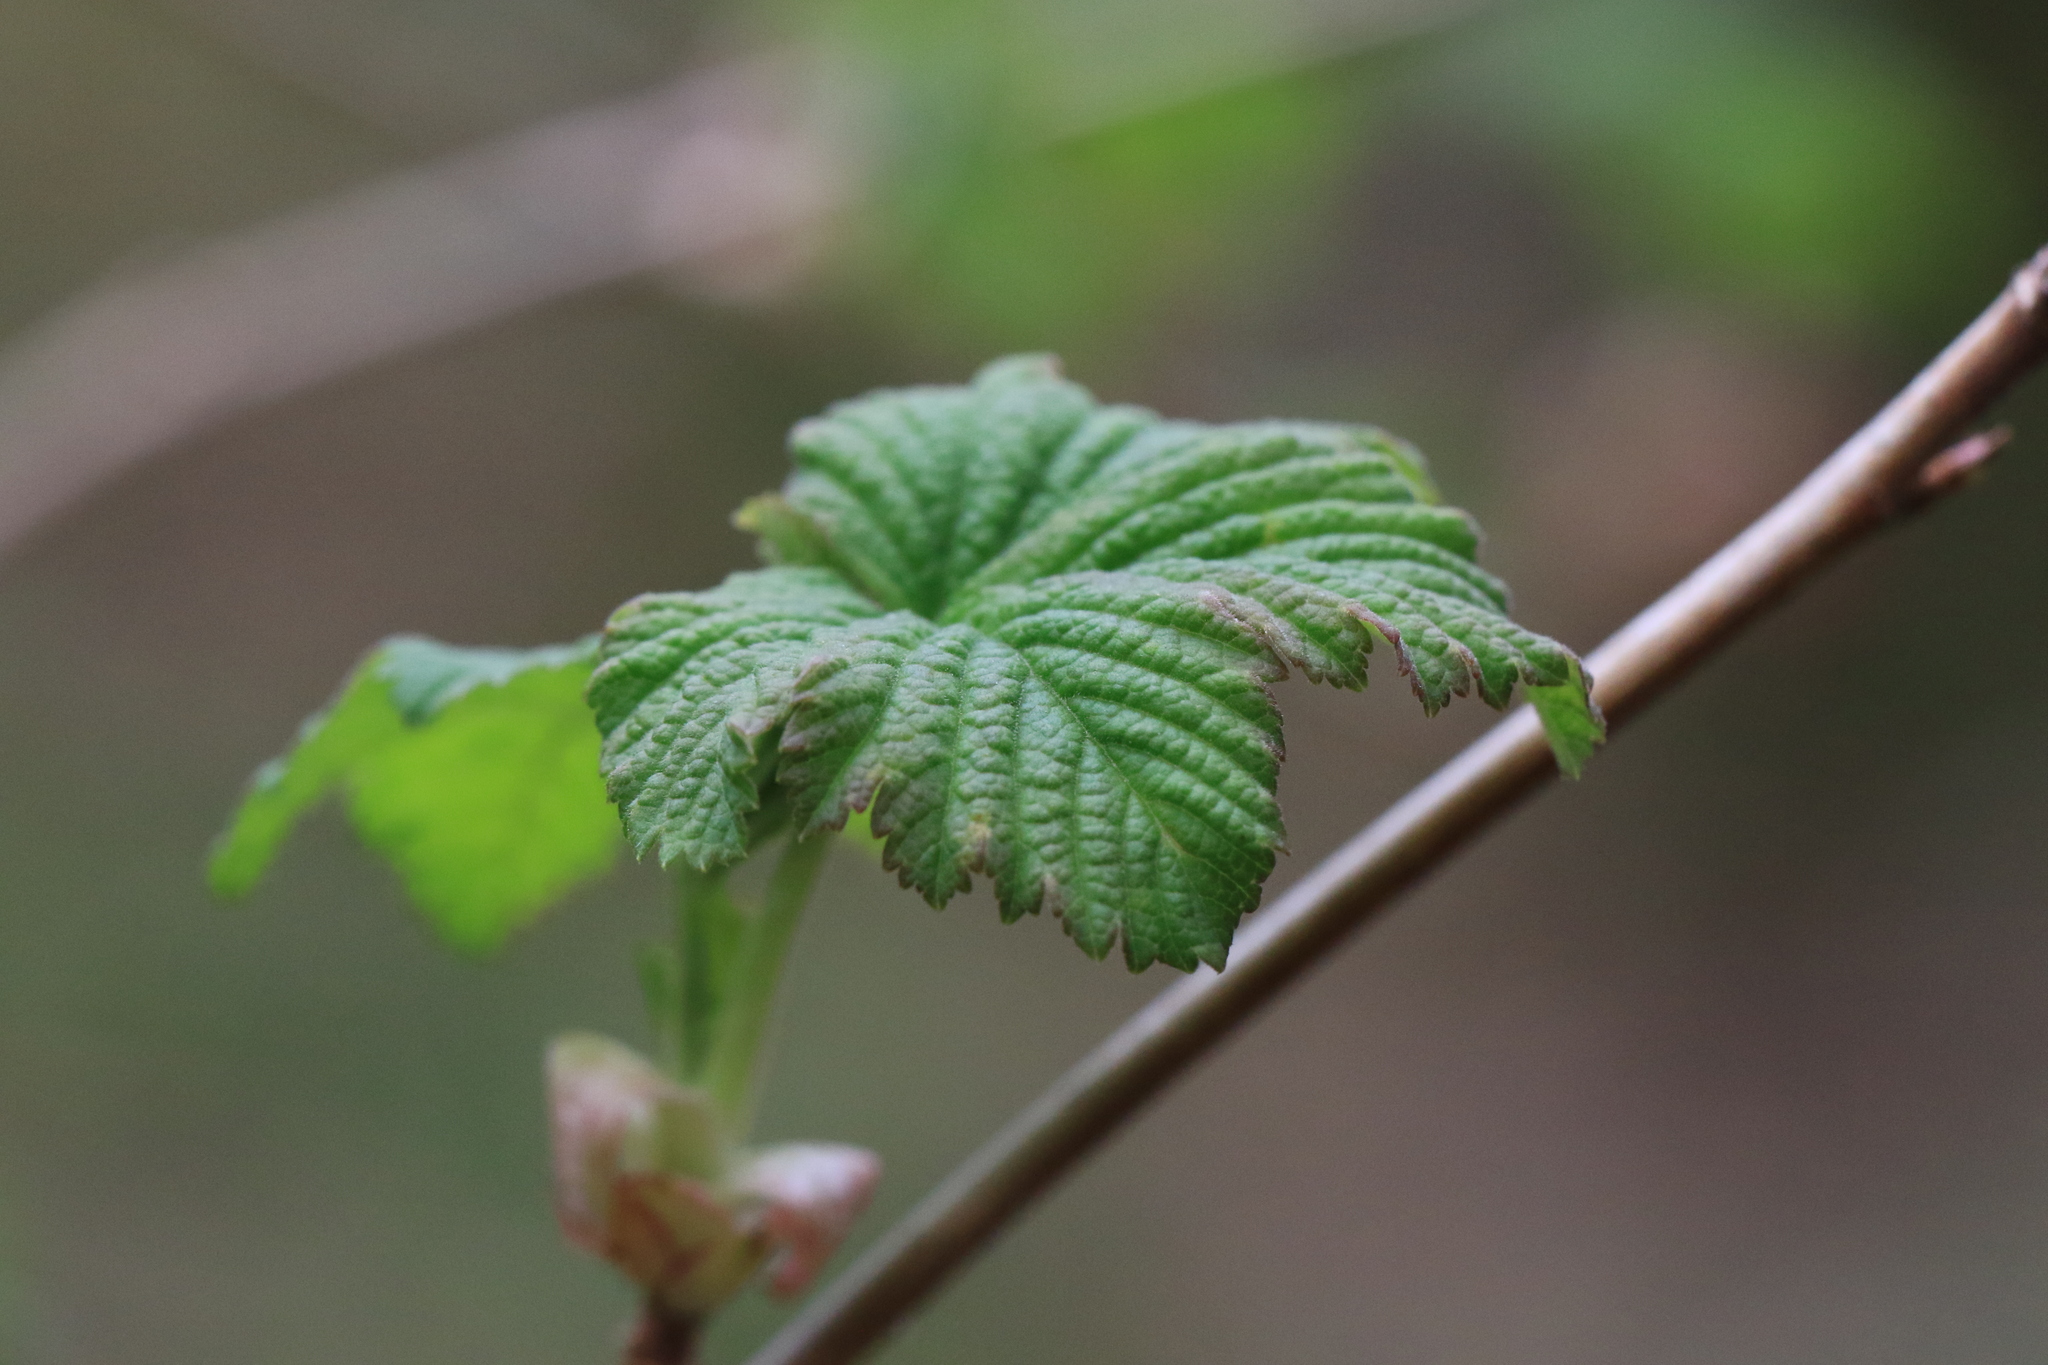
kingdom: Plantae
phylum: Tracheophyta
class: Magnoliopsida
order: Saxifragales
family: Grossulariaceae
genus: Ribes
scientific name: Ribes sanguineum
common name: Flowering currant
